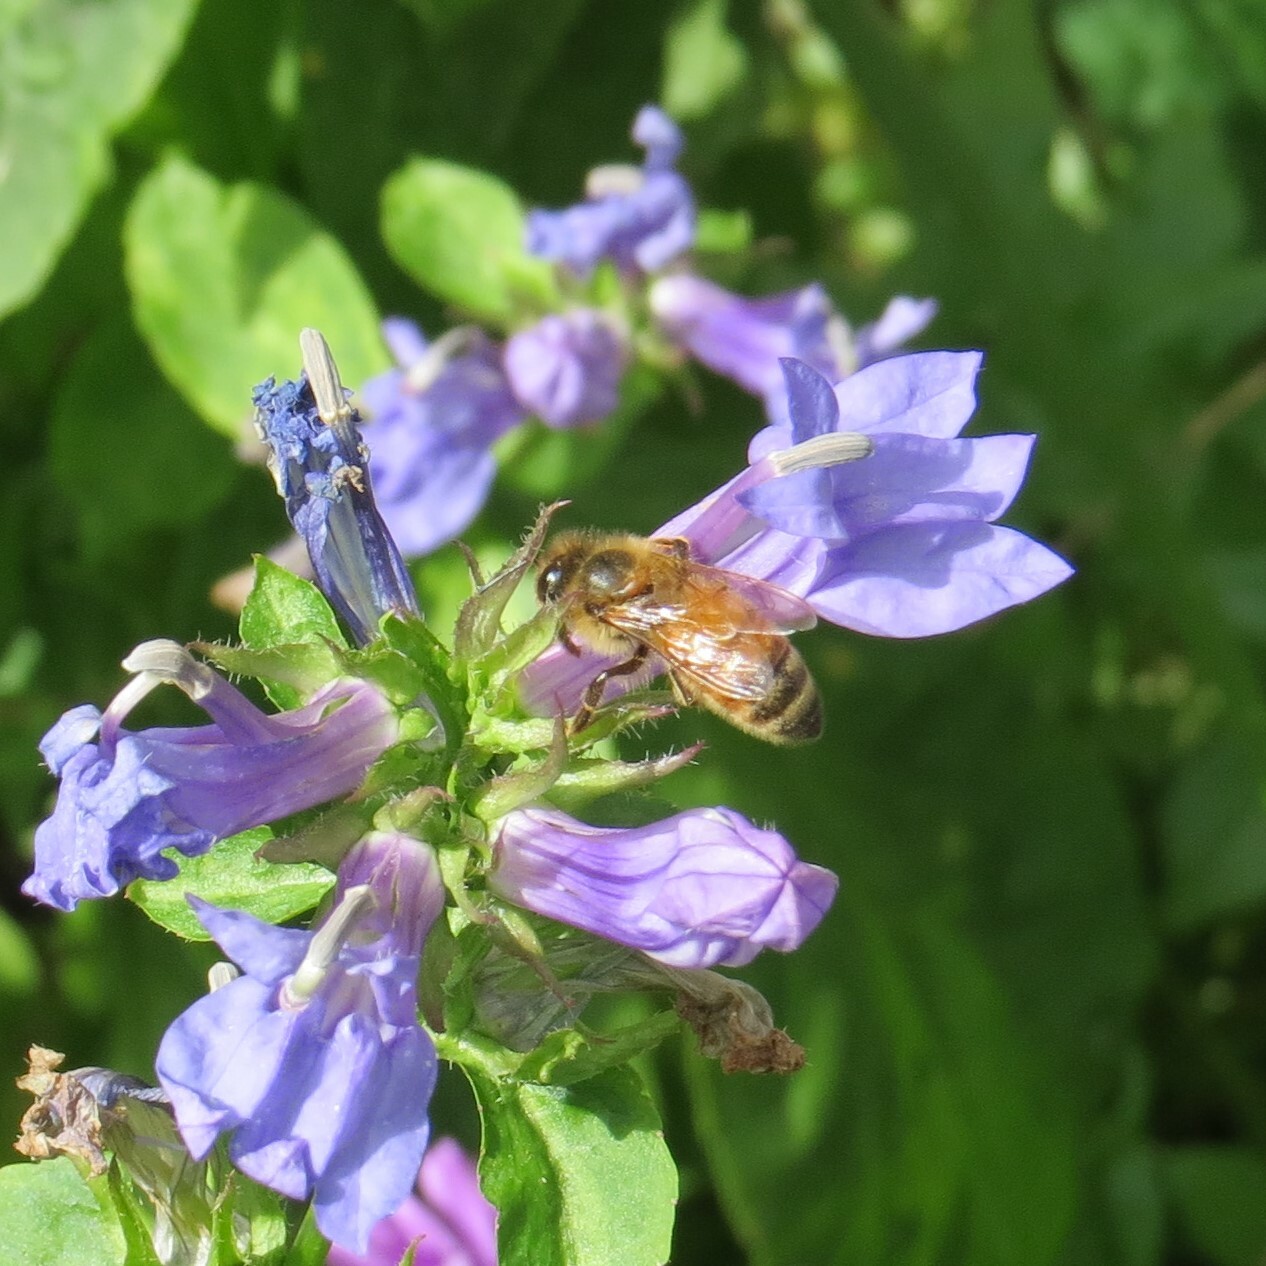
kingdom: Animalia
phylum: Arthropoda
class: Insecta
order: Hymenoptera
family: Apidae
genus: Apis
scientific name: Apis mellifera
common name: Honey bee
